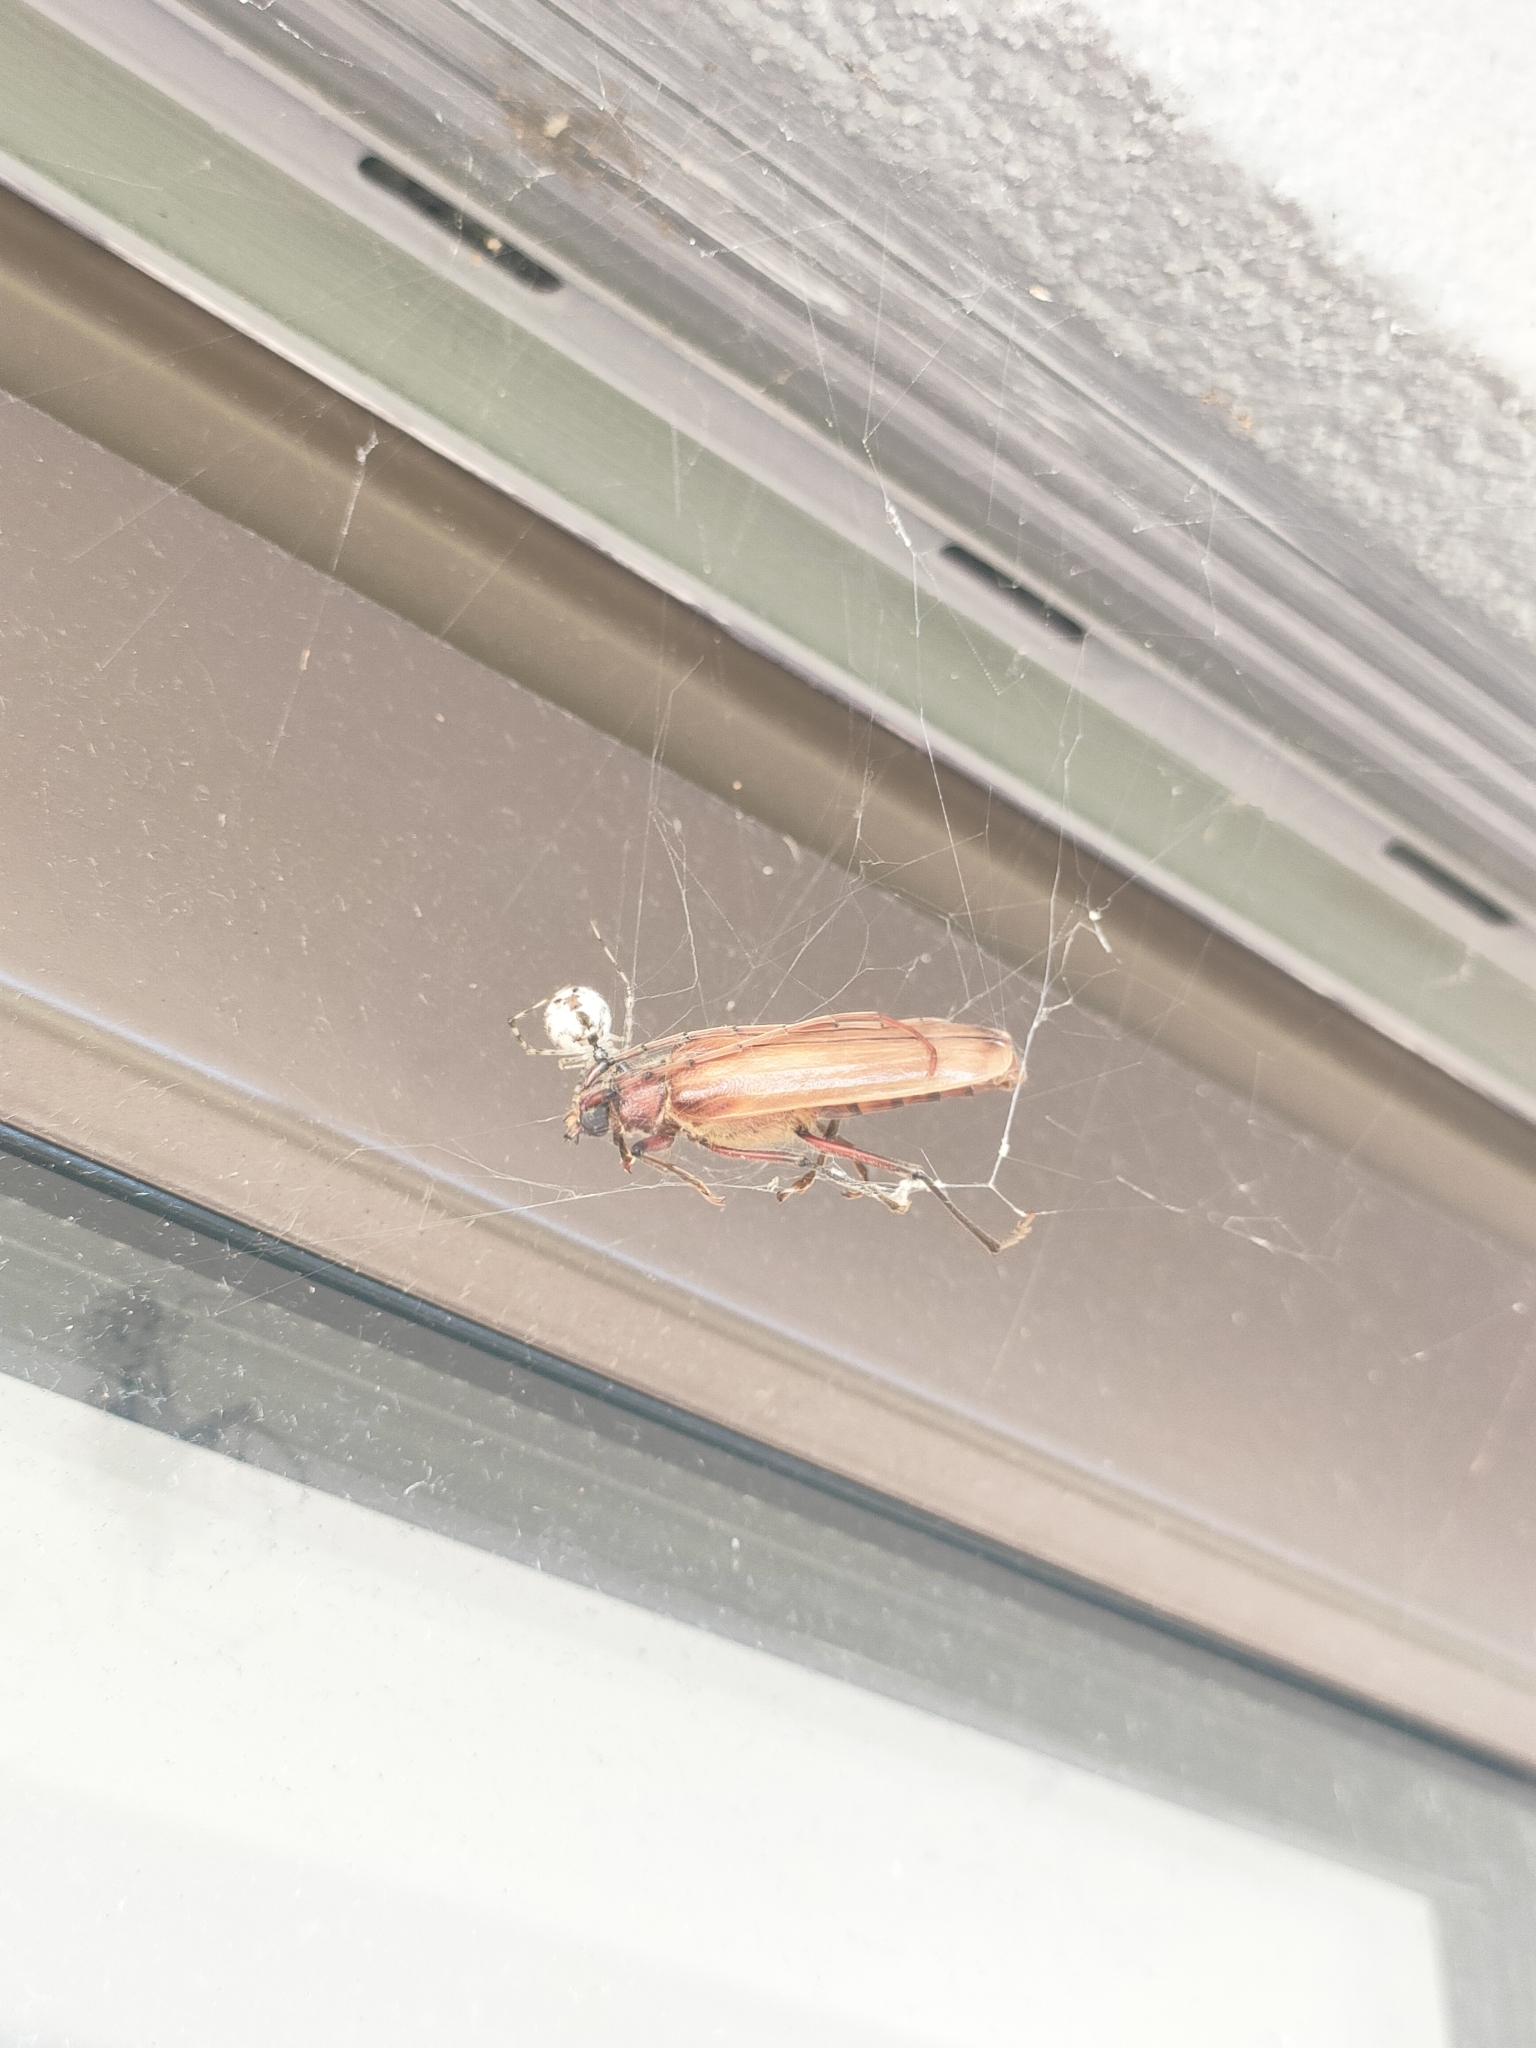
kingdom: Animalia
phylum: Arthropoda
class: Insecta
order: Coleoptera
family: Cerambycidae
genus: Ochrocydus
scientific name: Ochrocydus huttoni
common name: Kanuka longhorn
